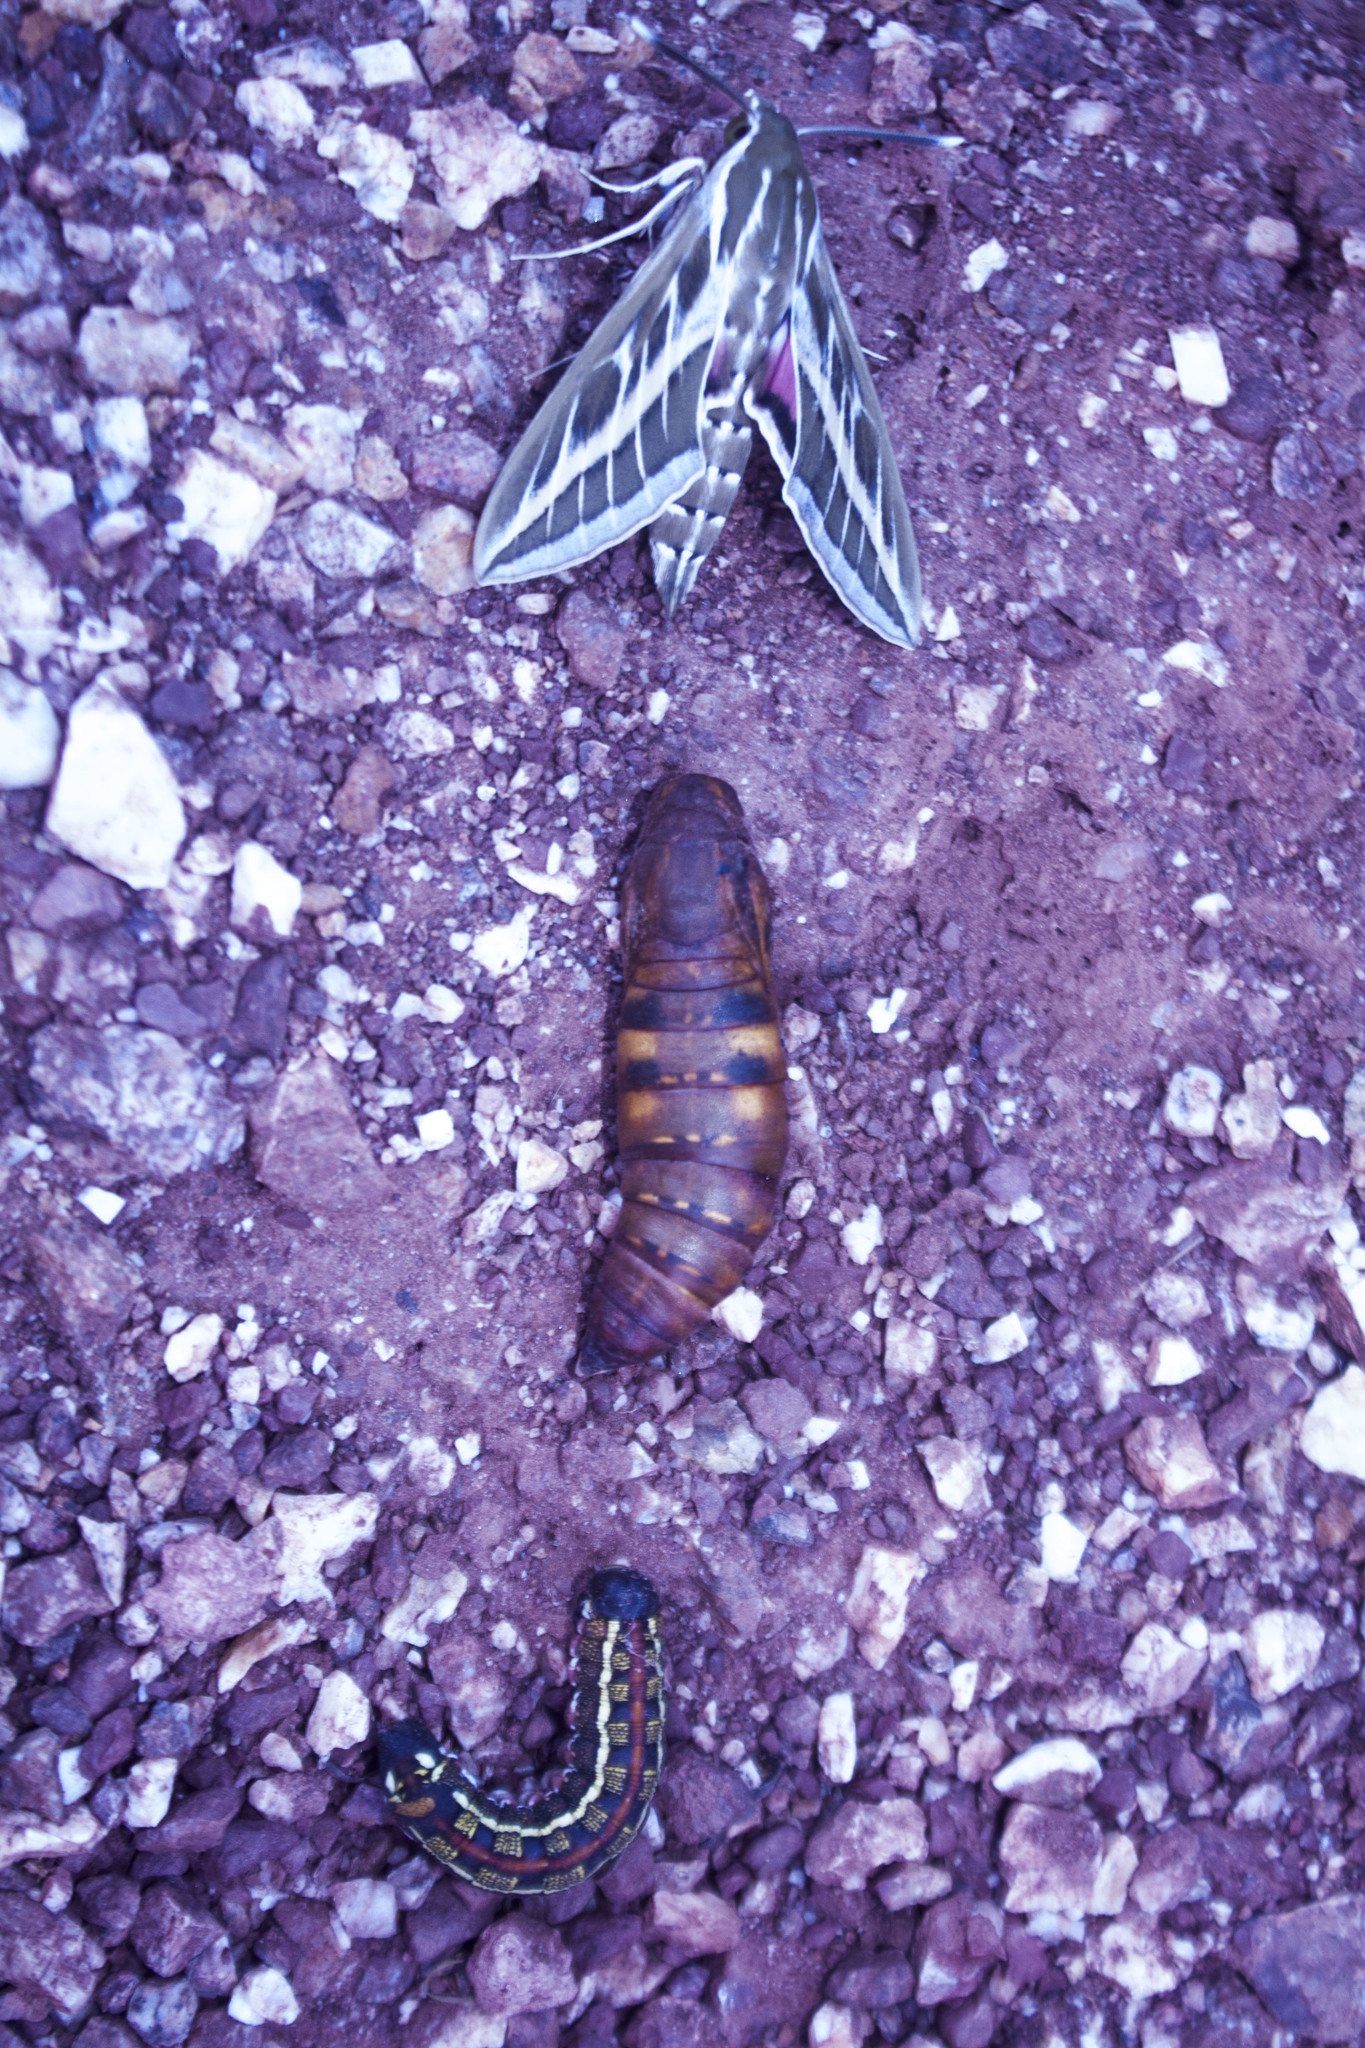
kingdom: Animalia
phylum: Arthropoda
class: Insecta
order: Lepidoptera
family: Sphingidae
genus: Hyles
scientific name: Hyles livornica
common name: Striped hawk-moth
